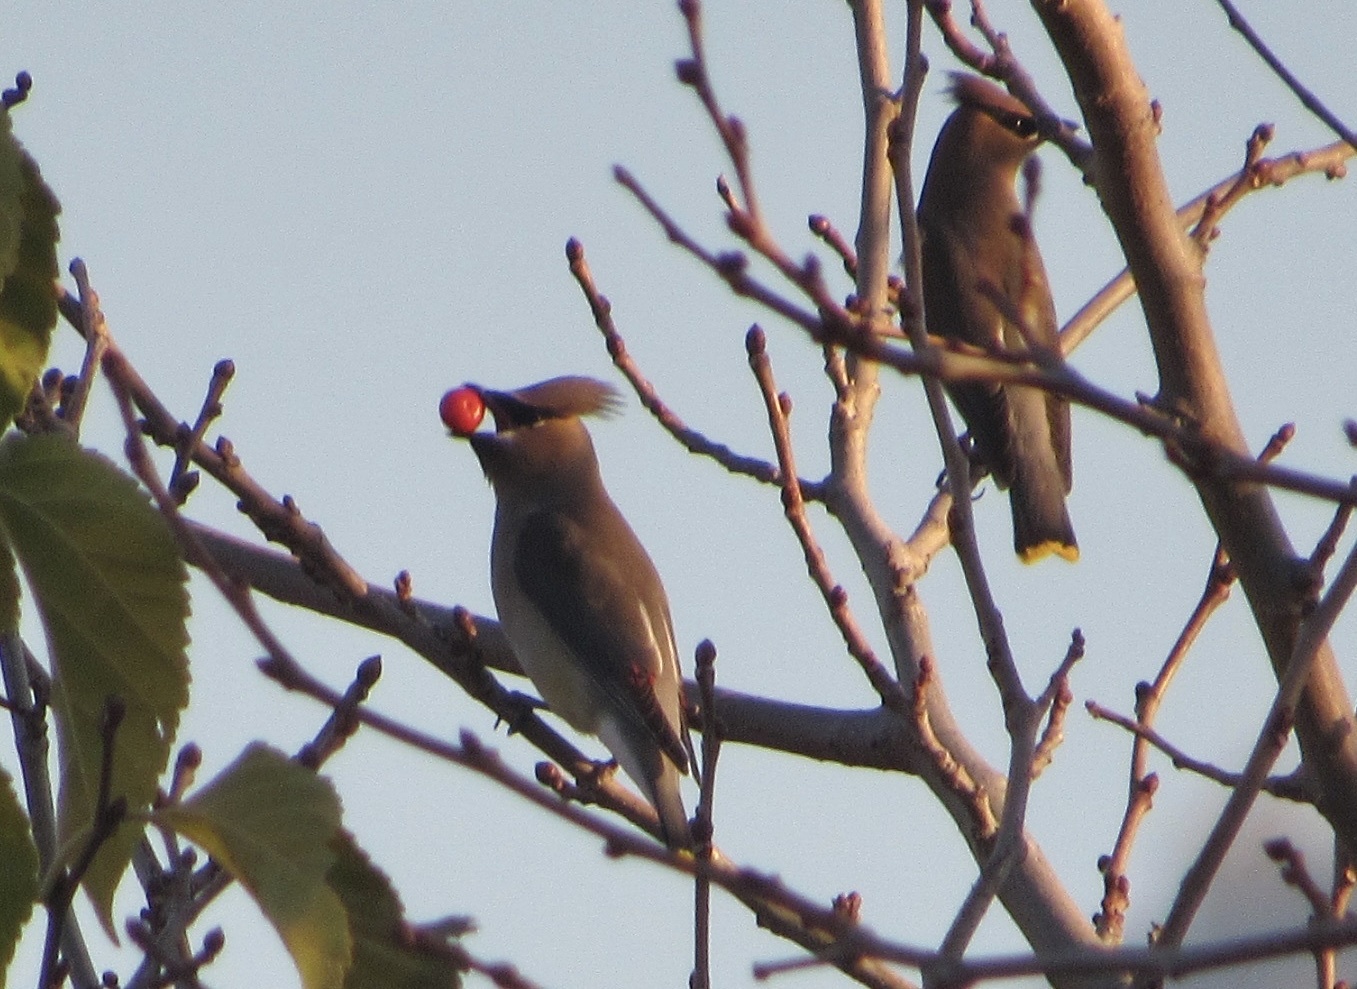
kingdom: Animalia
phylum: Chordata
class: Aves
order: Passeriformes
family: Bombycillidae
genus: Bombycilla
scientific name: Bombycilla cedrorum
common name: Cedar waxwing
